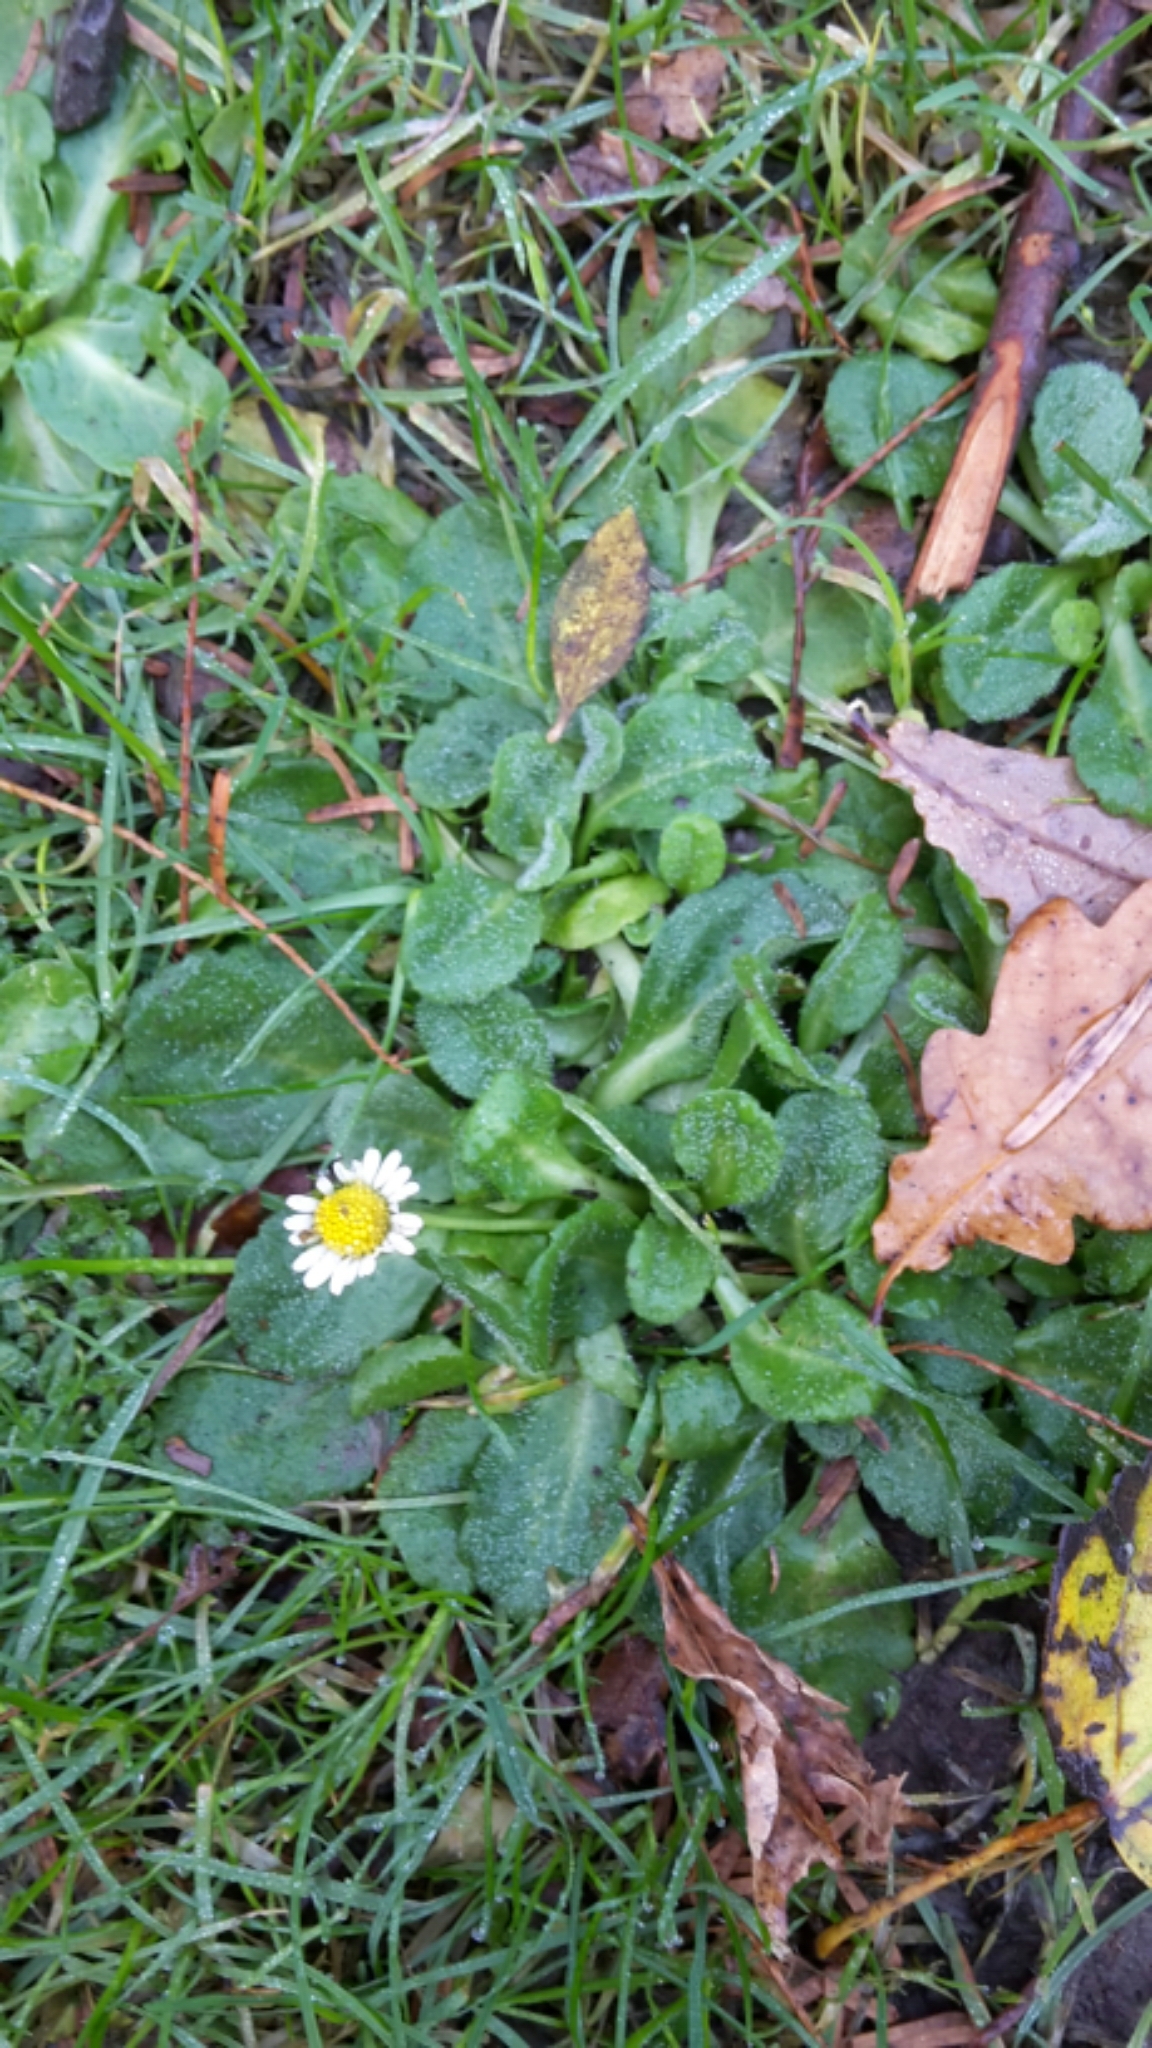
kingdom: Plantae
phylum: Tracheophyta
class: Magnoliopsida
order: Asterales
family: Asteraceae
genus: Bellis
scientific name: Bellis perennis
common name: Lawndaisy
